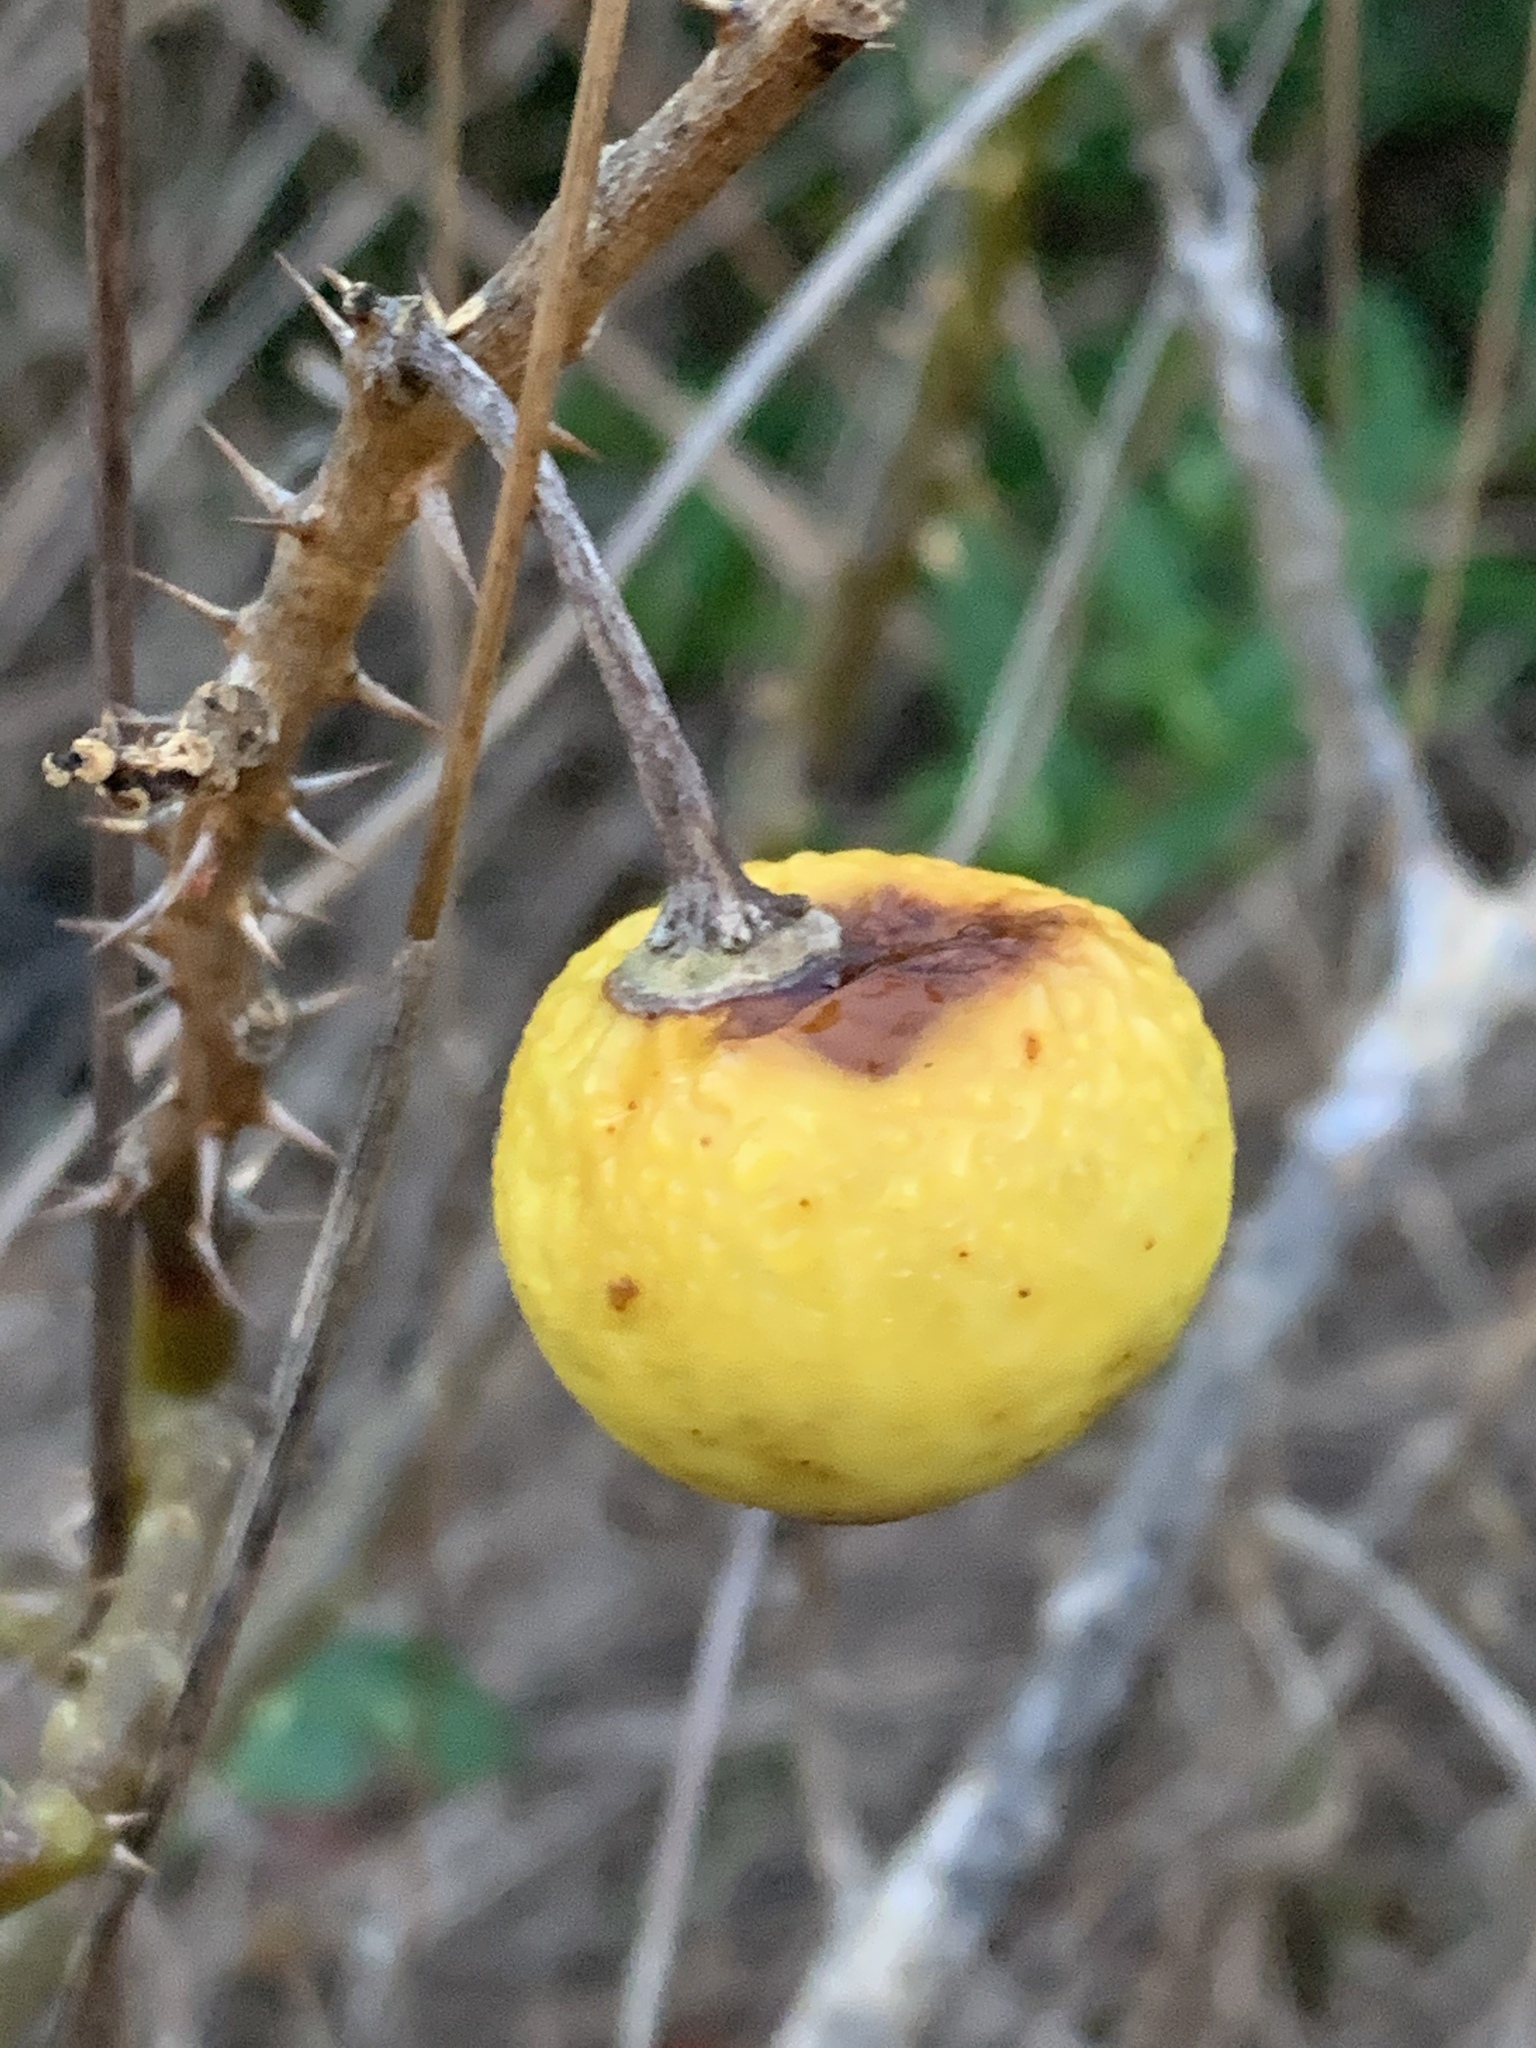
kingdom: Plantae
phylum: Tracheophyta
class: Magnoliopsida
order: Solanales
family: Solanaceae
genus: Solanum
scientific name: Solanum linnaeanum
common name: Nightshade
